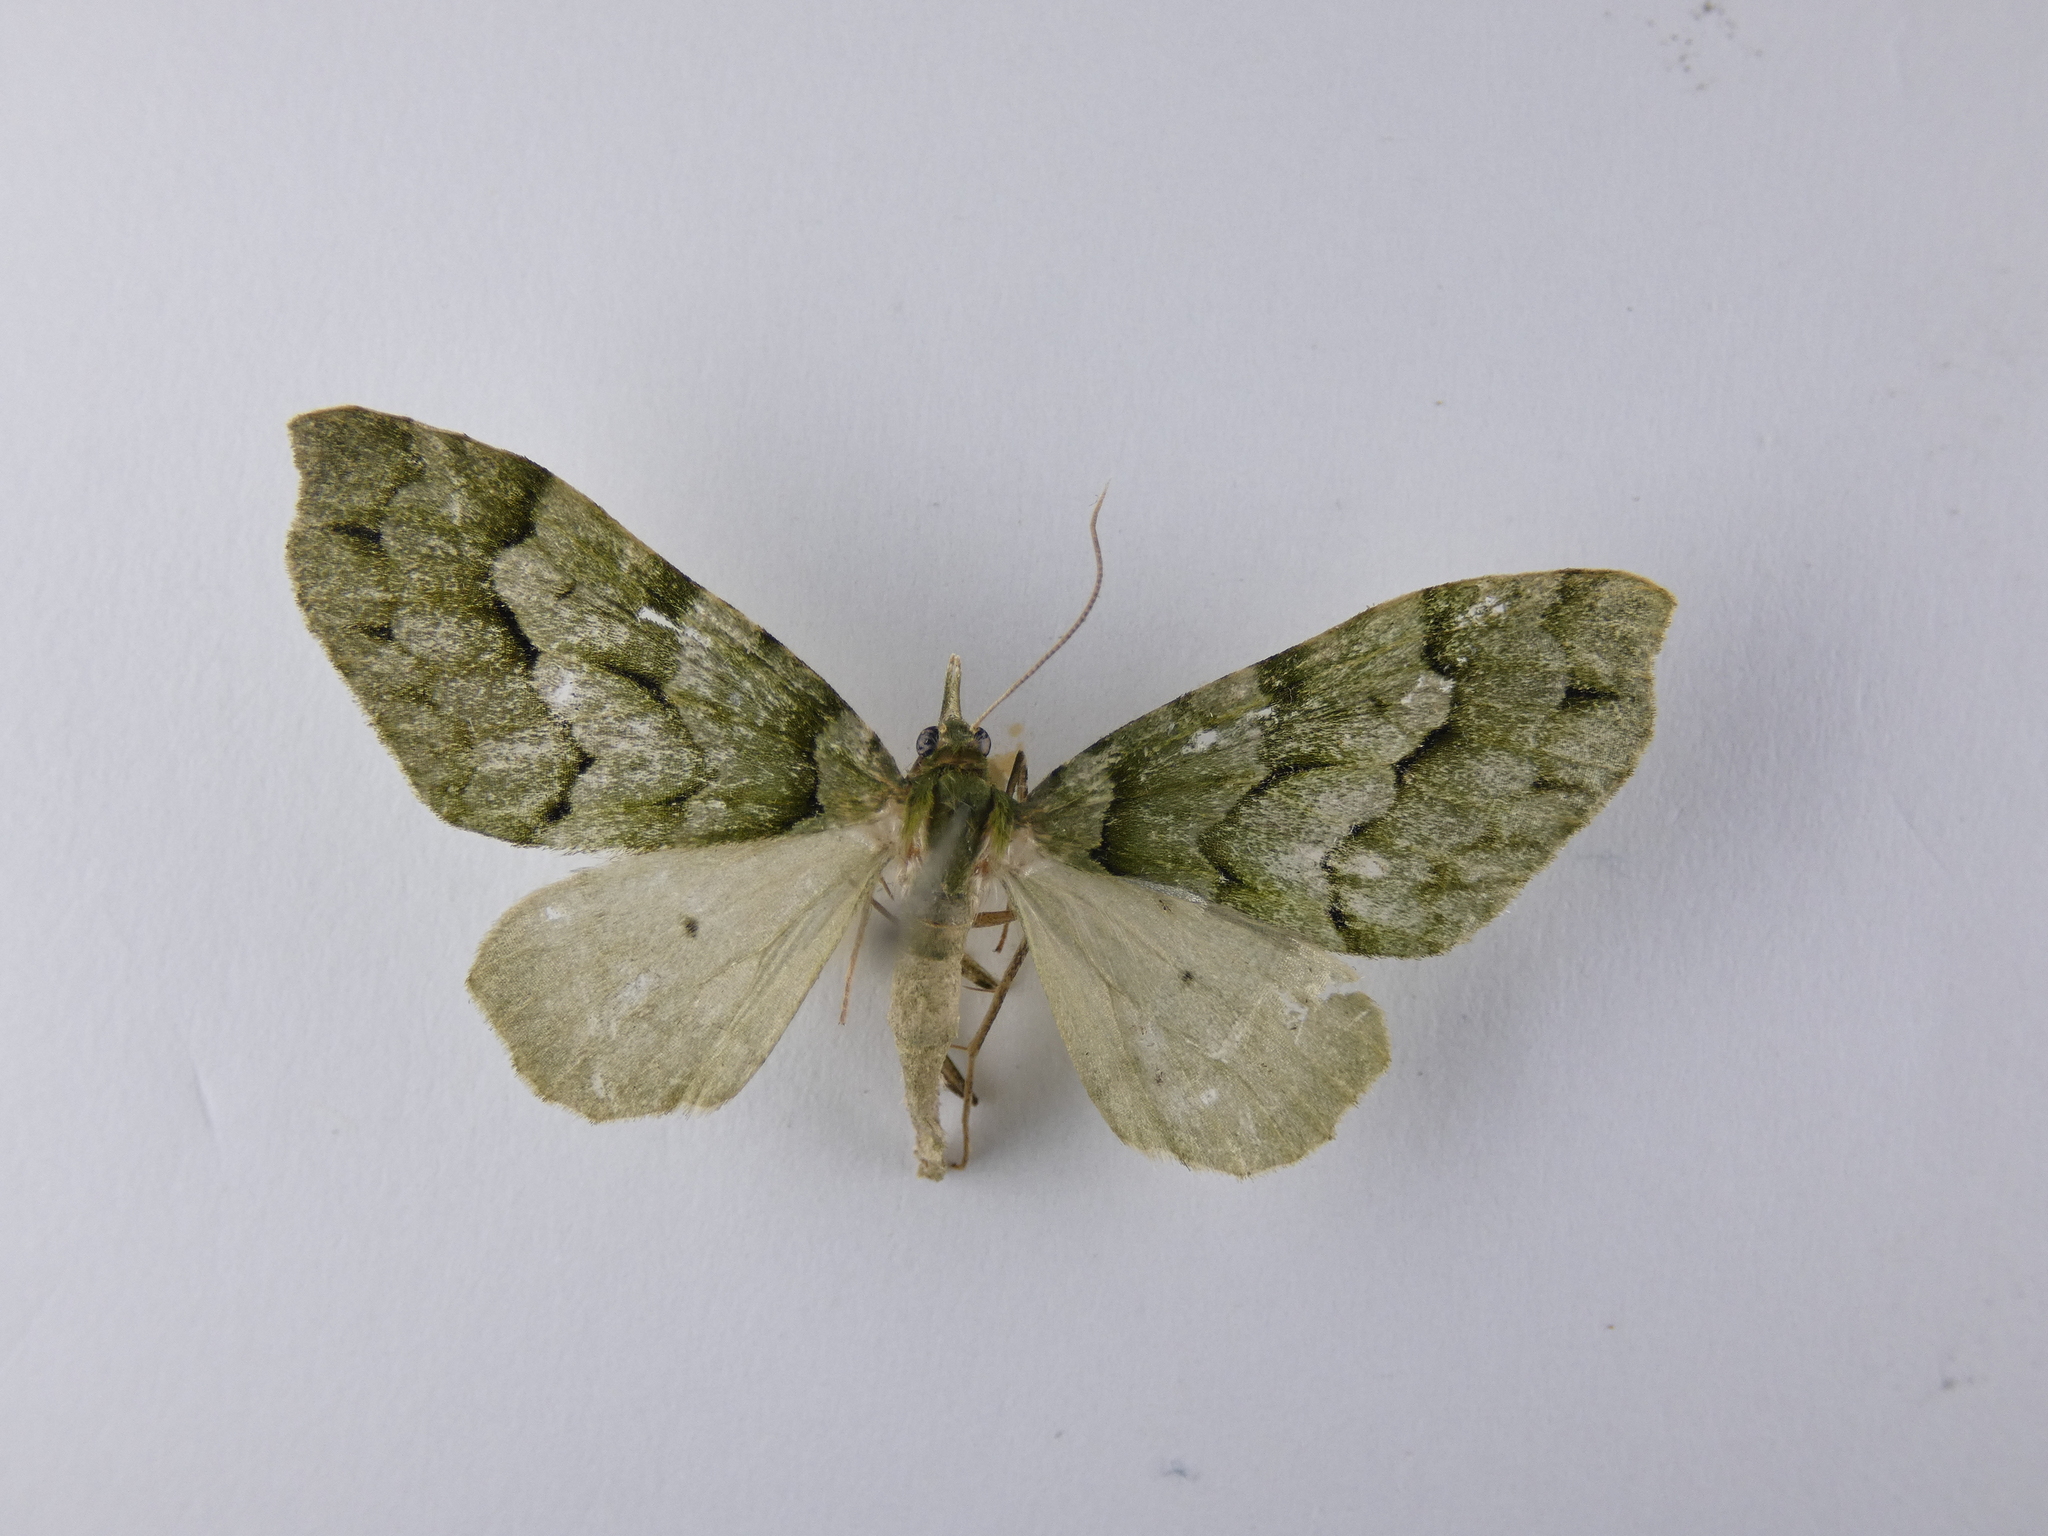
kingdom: Animalia
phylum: Arthropoda
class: Insecta
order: Lepidoptera
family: Geometridae
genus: Tatosoma
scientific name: Tatosoma lestevata
